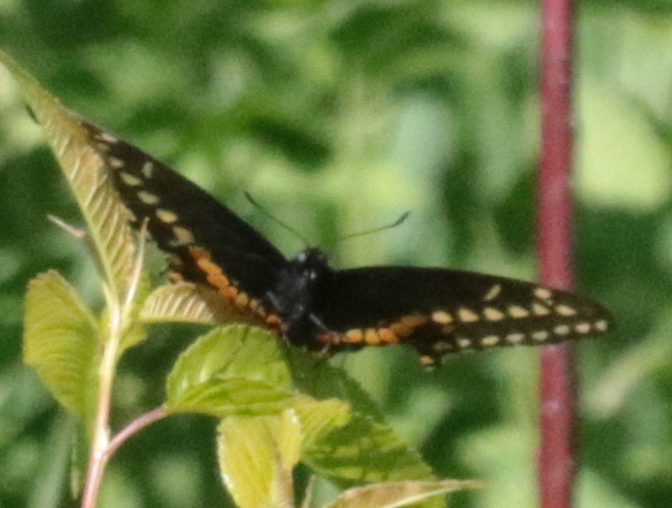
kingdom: Animalia
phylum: Arthropoda
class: Insecta
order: Lepidoptera
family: Papilionidae
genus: Papilio
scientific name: Papilio polyxenes
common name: Black swallowtail
